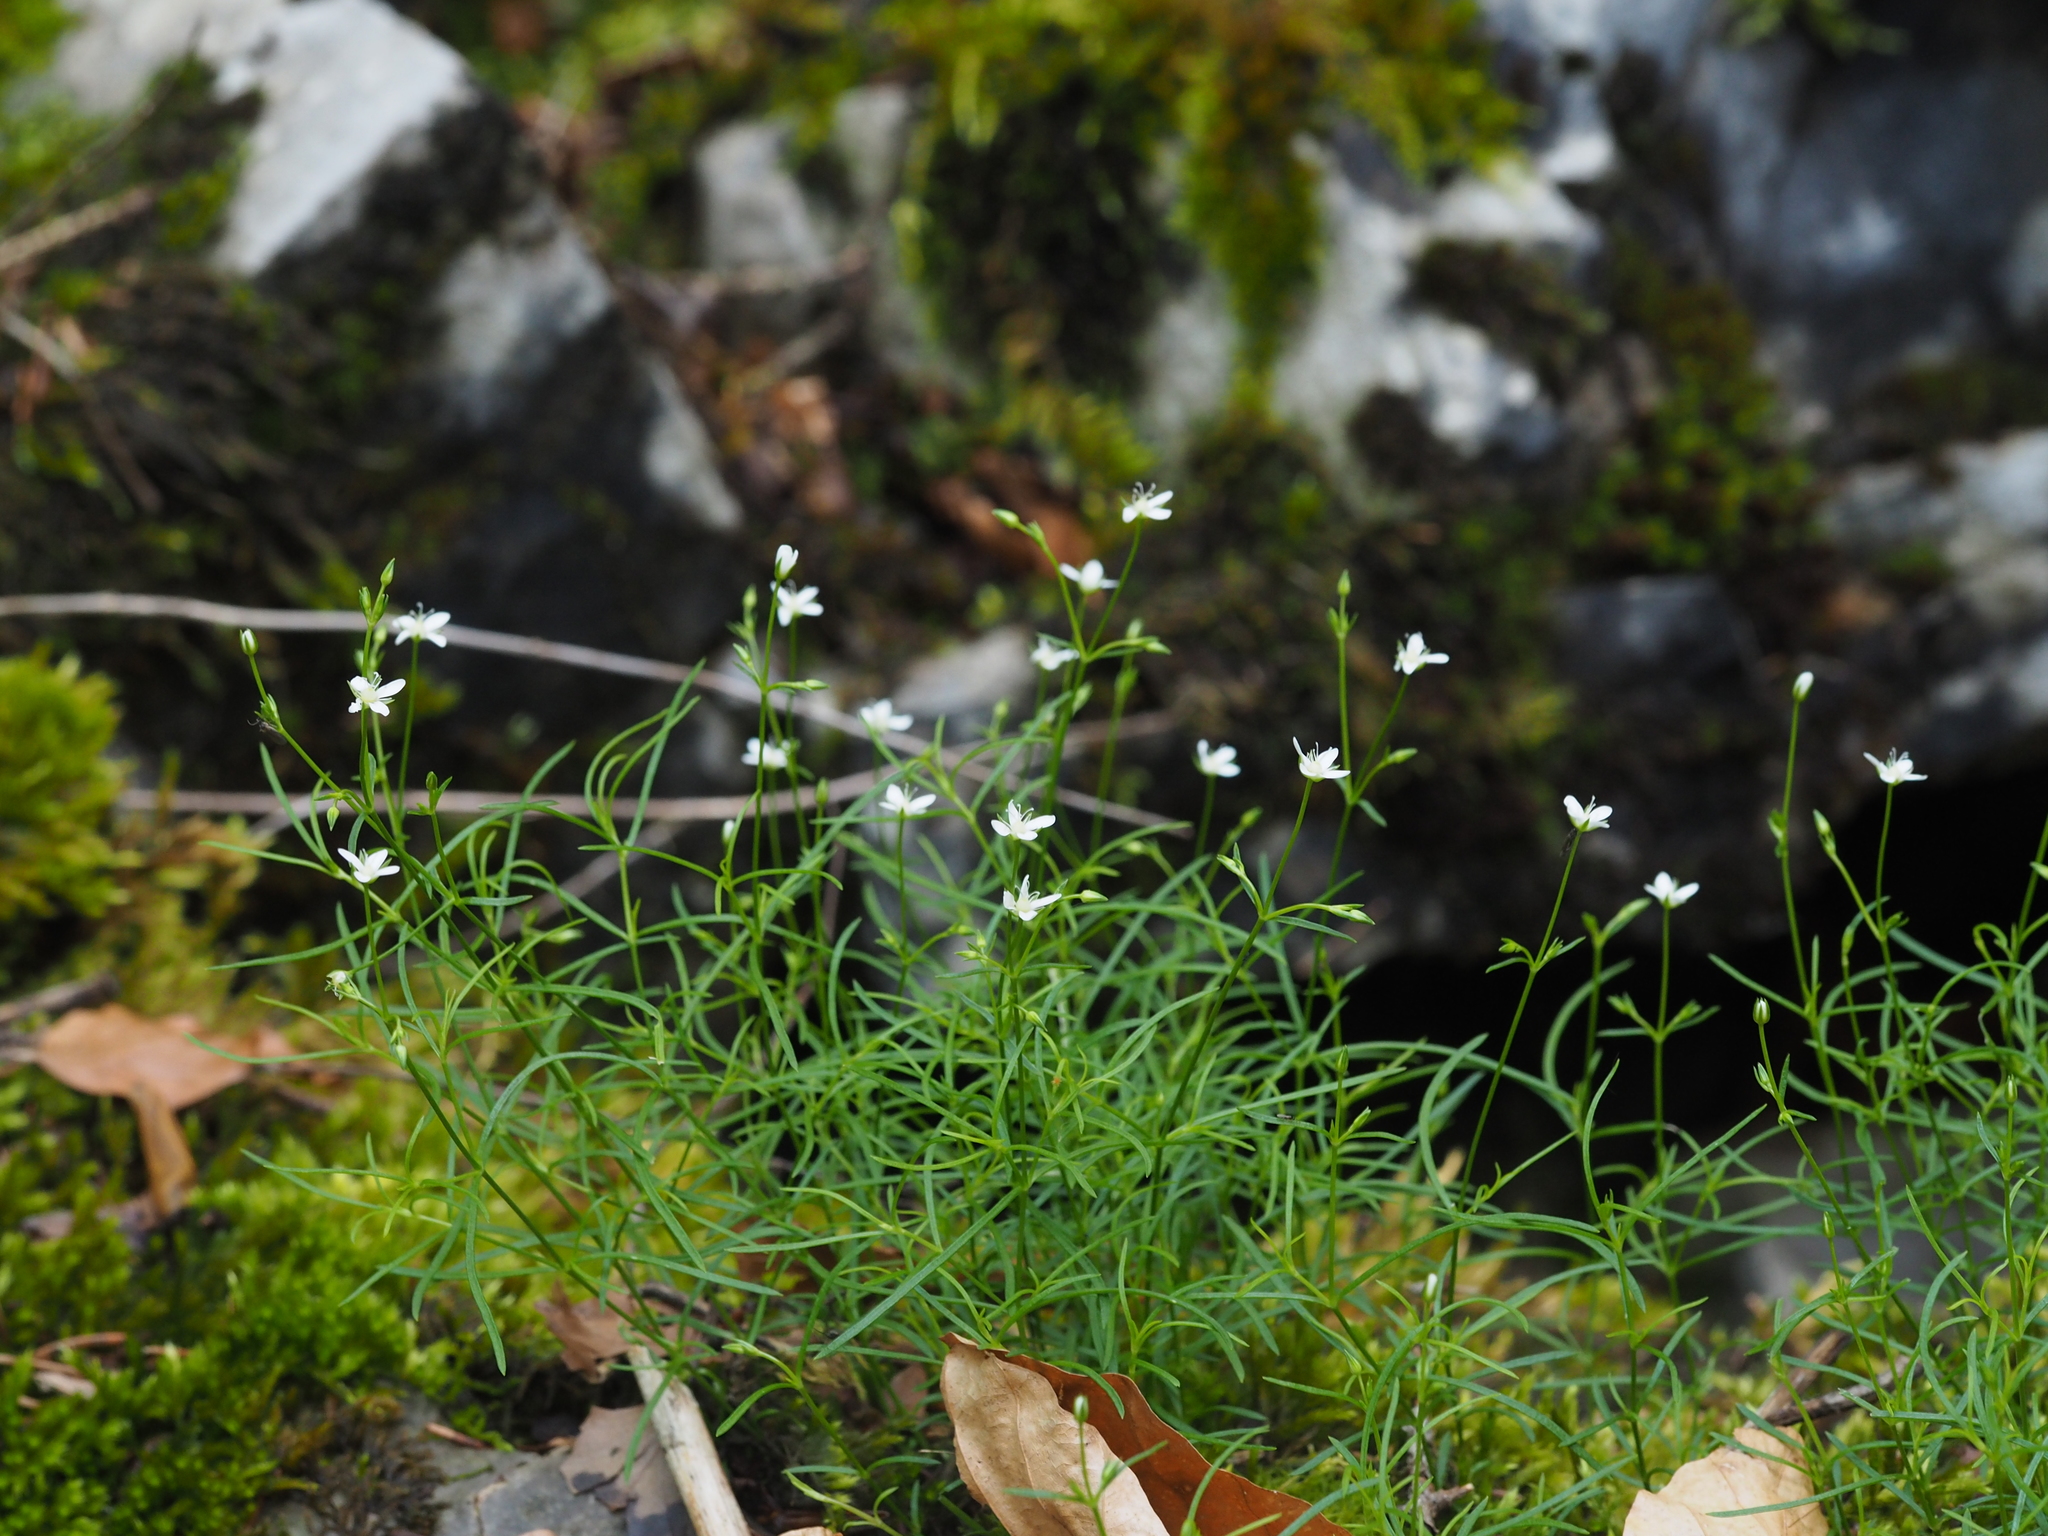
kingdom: Plantae
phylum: Tracheophyta
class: Magnoliopsida
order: Caryophyllales
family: Caryophyllaceae
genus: Moehringia
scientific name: Moehringia muscosa
